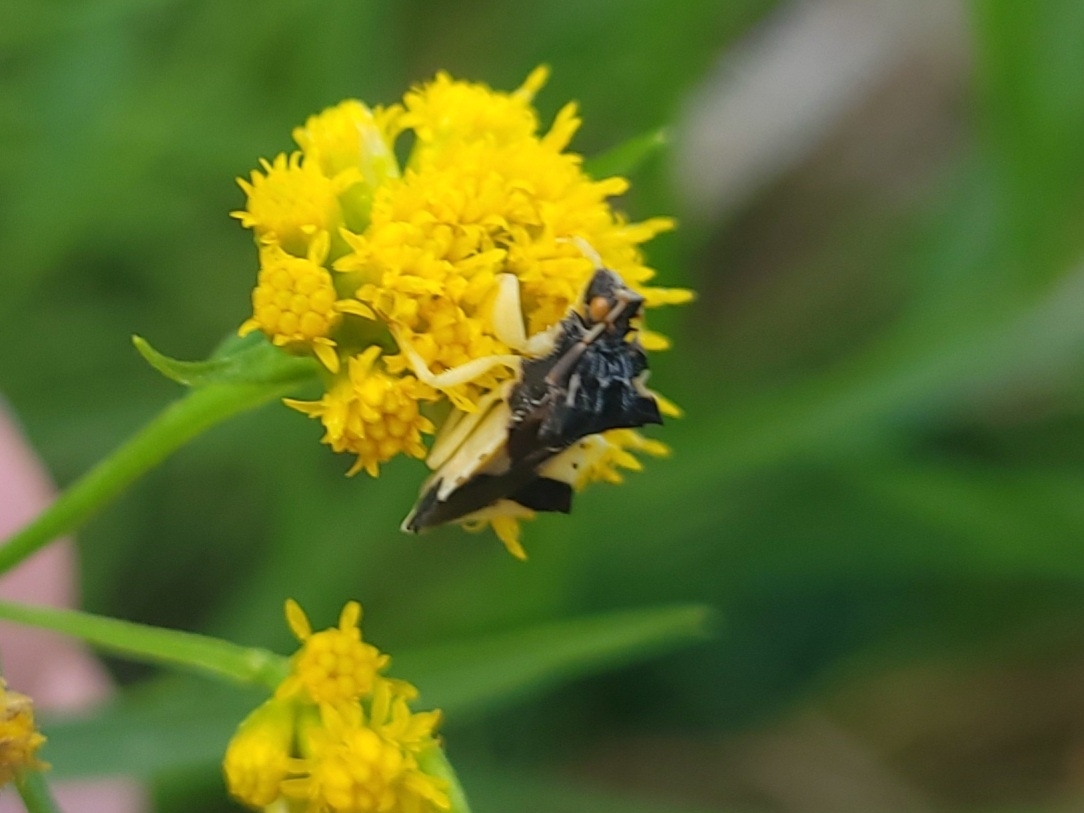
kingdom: Animalia
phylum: Arthropoda
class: Insecta
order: Hemiptera
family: Reduviidae
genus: Phymata
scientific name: Phymata americana
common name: Jagged ambush bug
